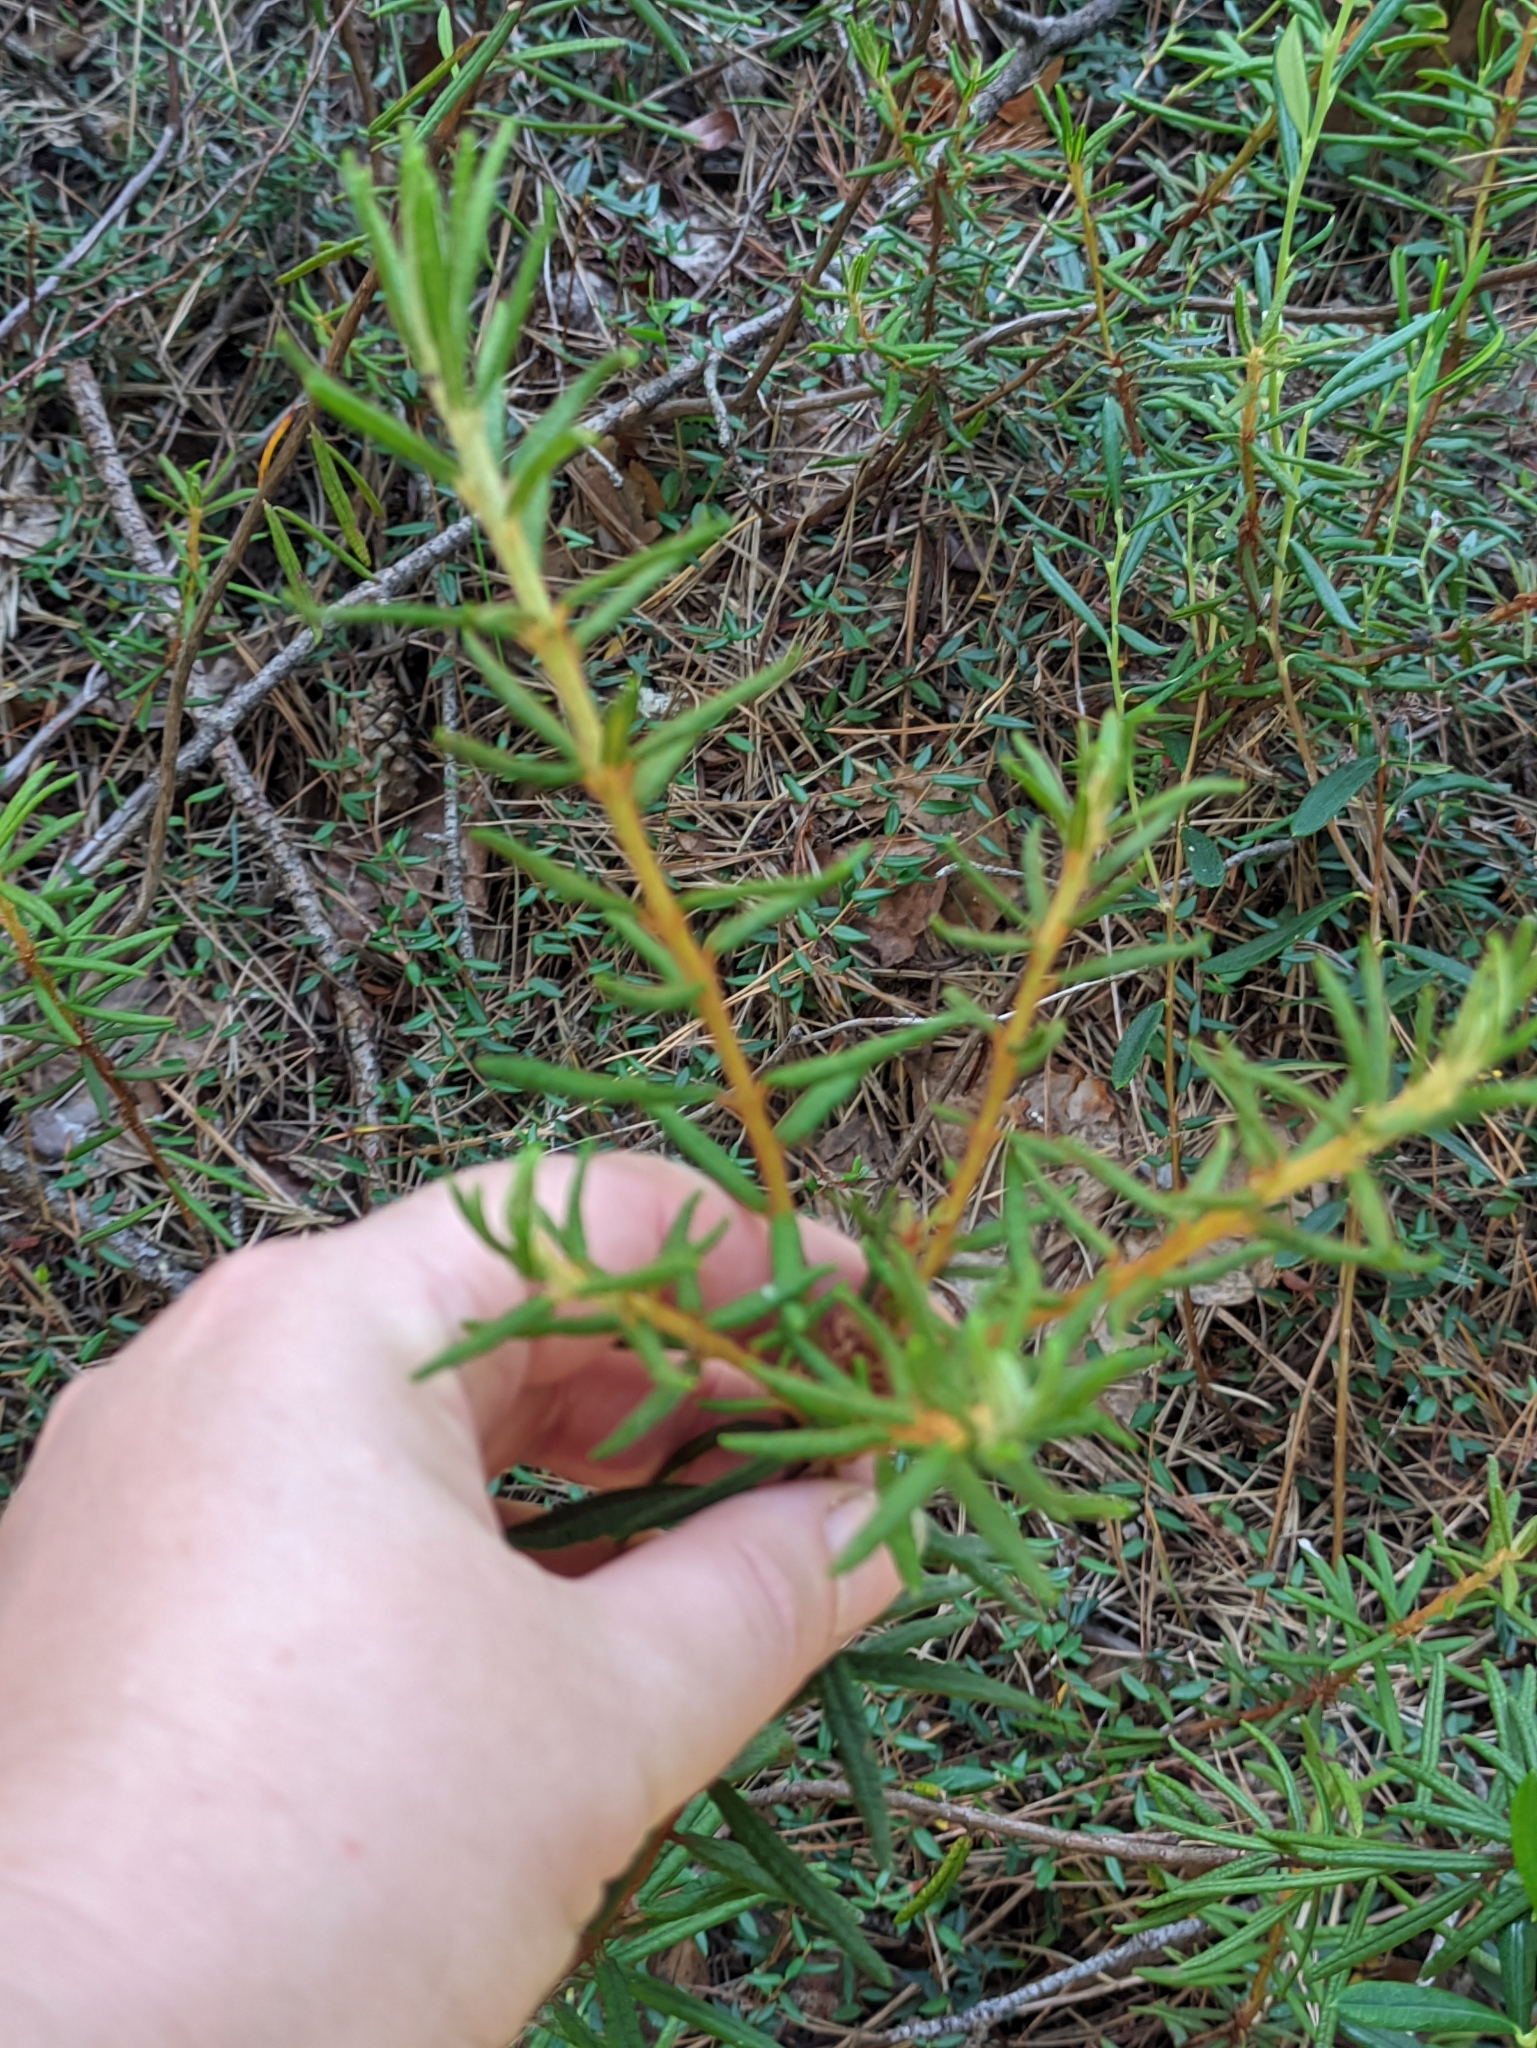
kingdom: Plantae
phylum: Tracheophyta
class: Magnoliopsida
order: Ericales
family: Ericaceae
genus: Rhododendron
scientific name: Rhododendron tomentosum
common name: Marsh labrador tea
